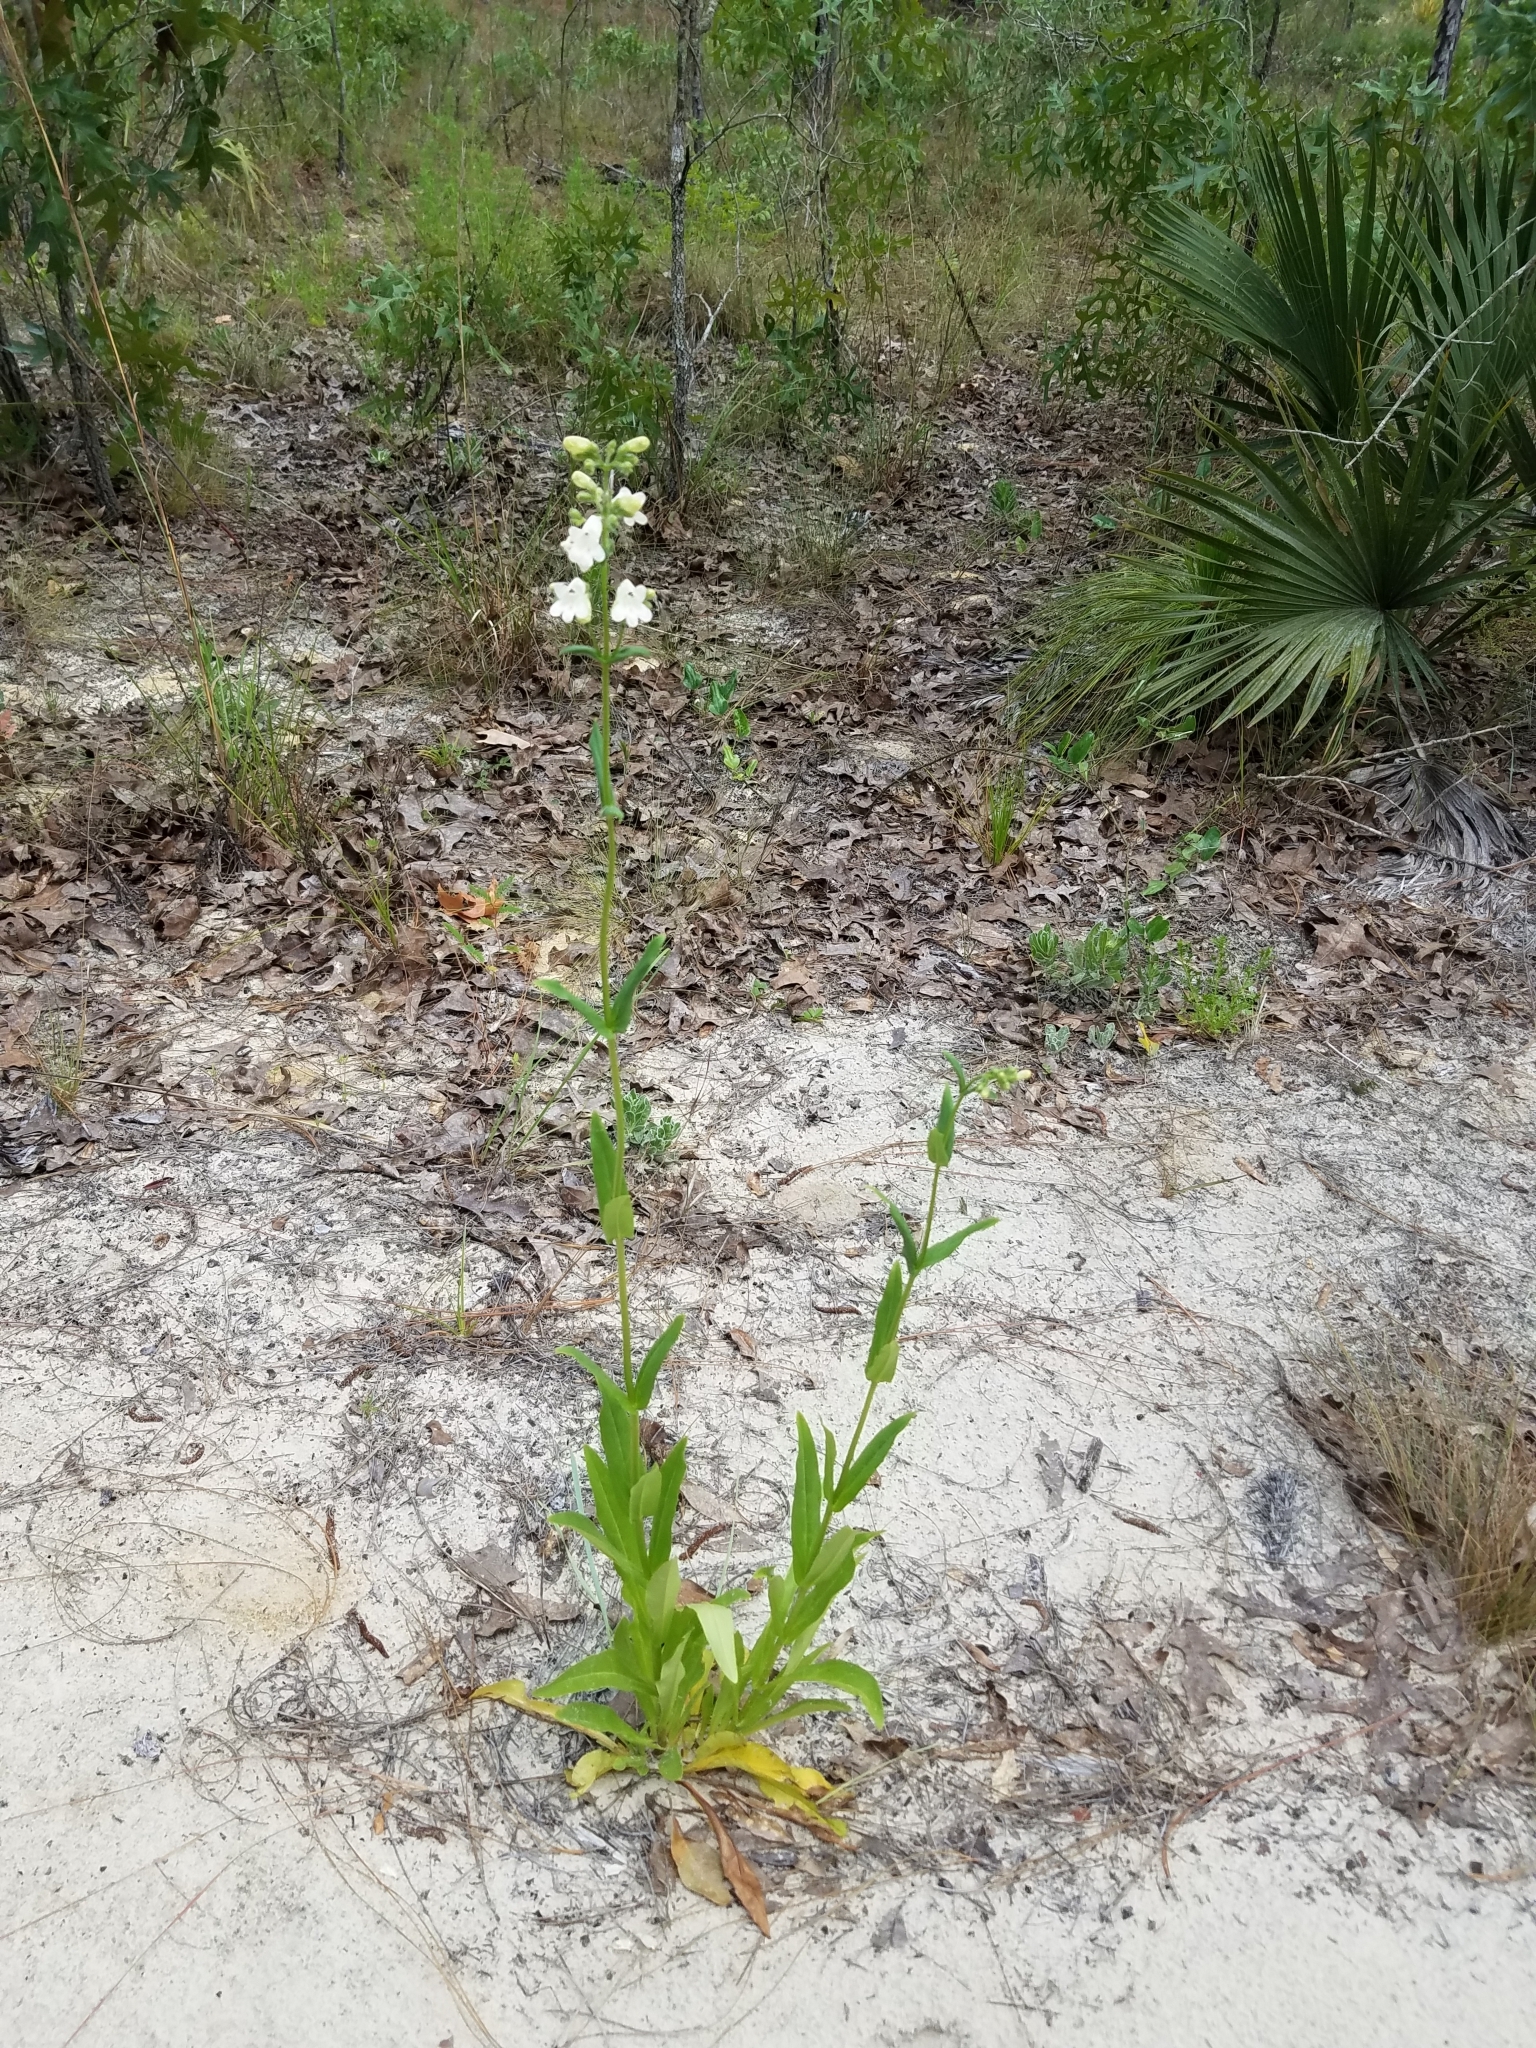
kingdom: Plantae
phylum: Tracheophyta
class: Magnoliopsida
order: Lamiales
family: Plantaginaceae
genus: Penstemon
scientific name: Penstemon multiflorus
